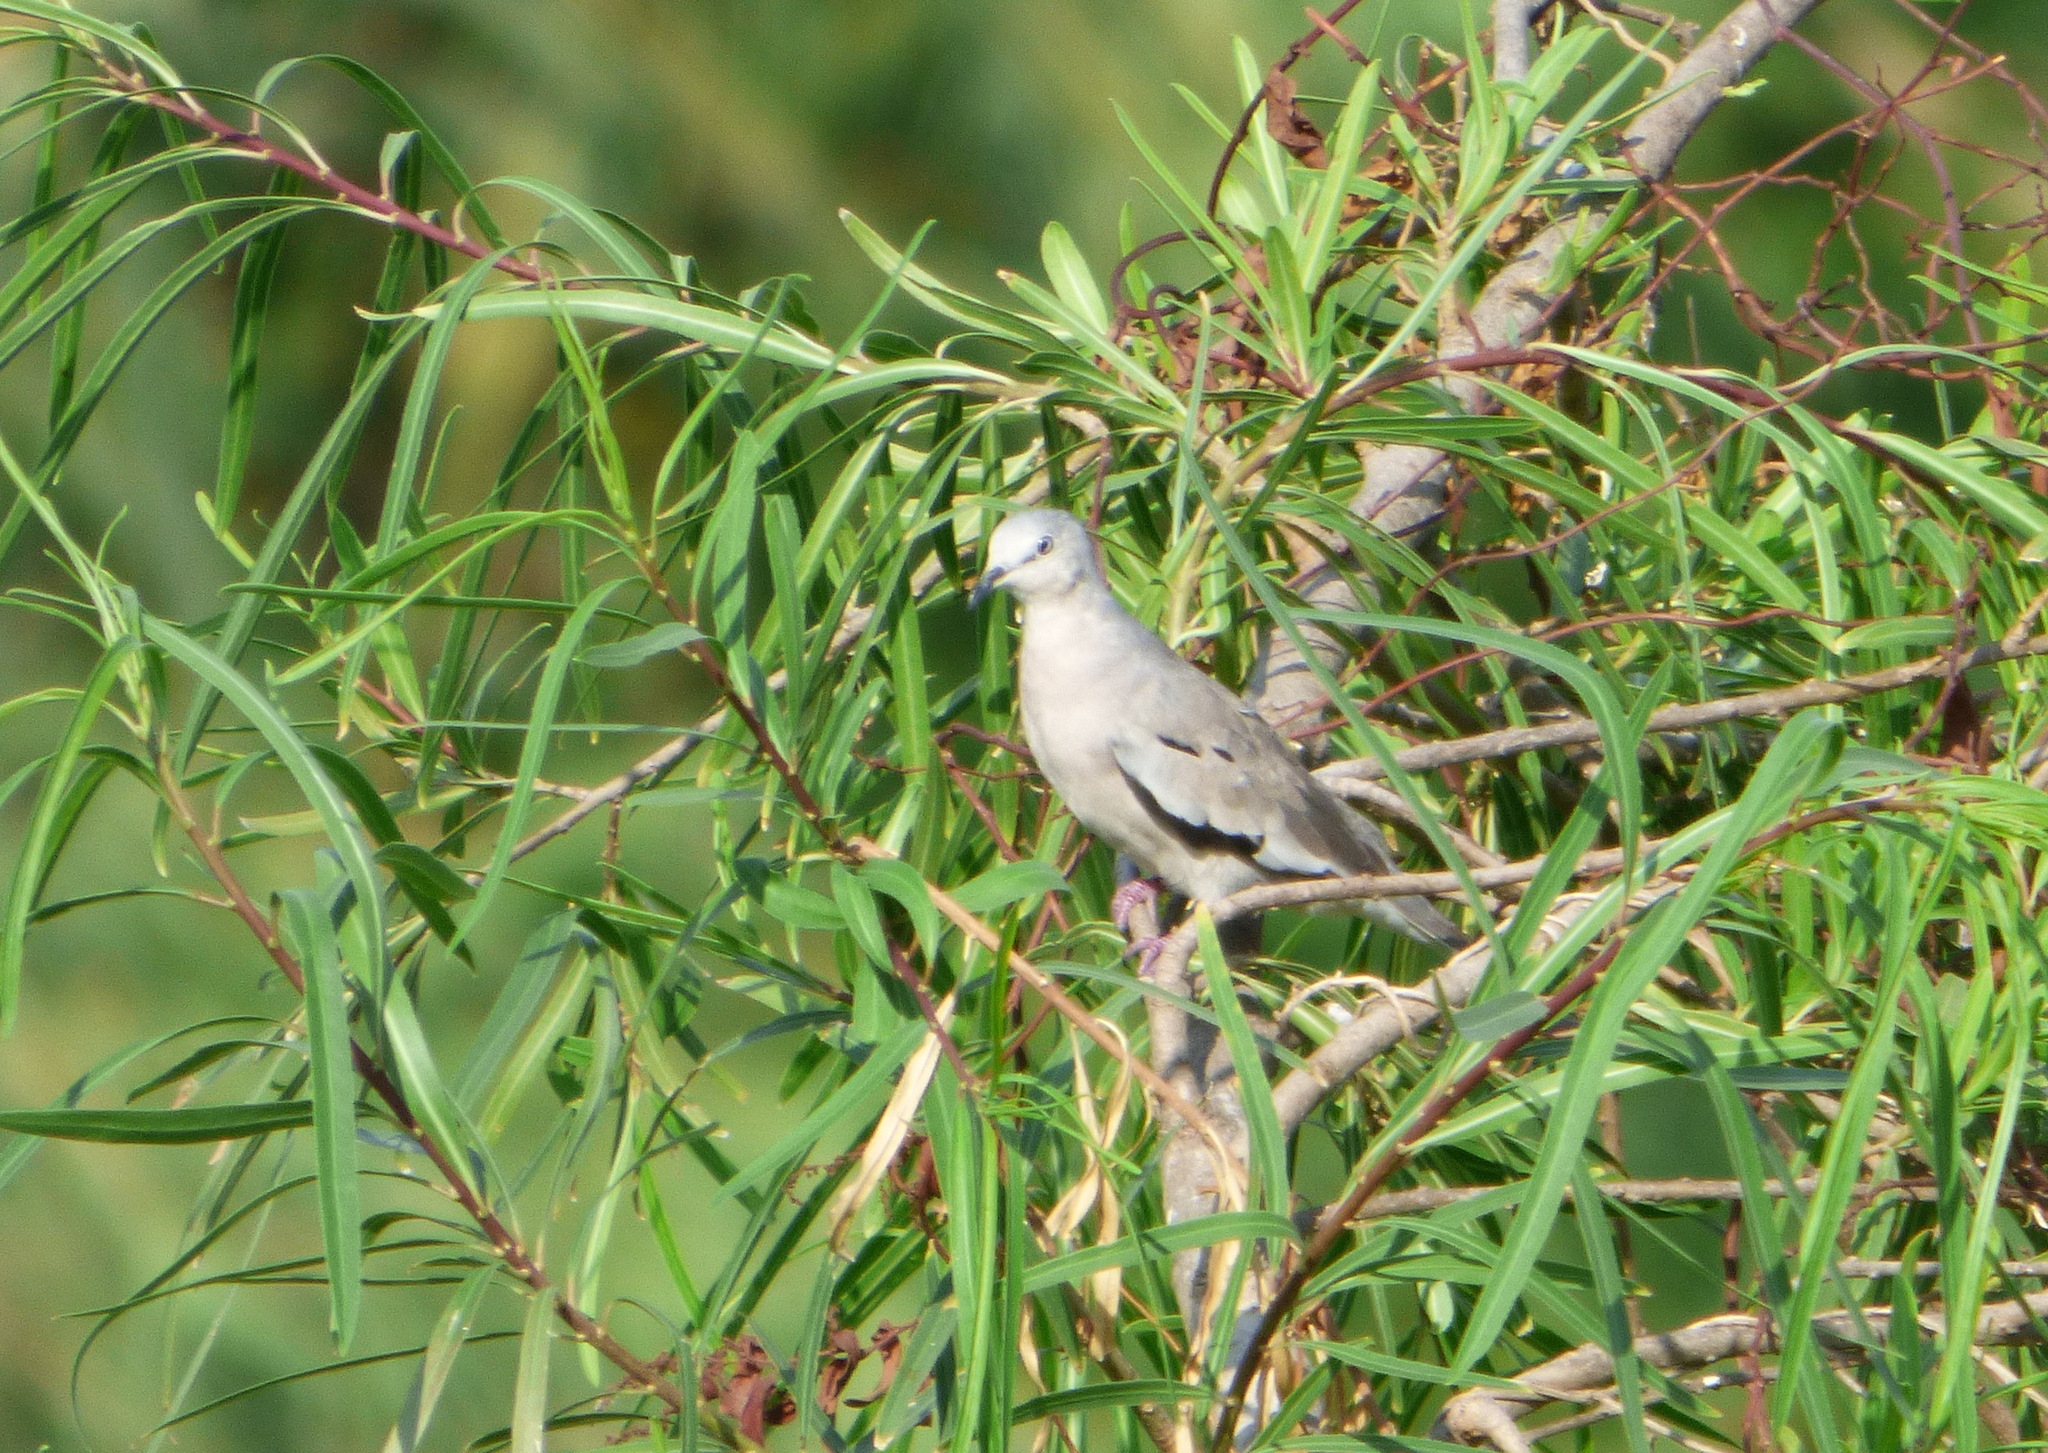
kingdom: Animalia
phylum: Chordata
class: Aves
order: Columbiformes
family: Columbidae
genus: Columbina
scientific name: Columbina picui
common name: Picui ground dove
